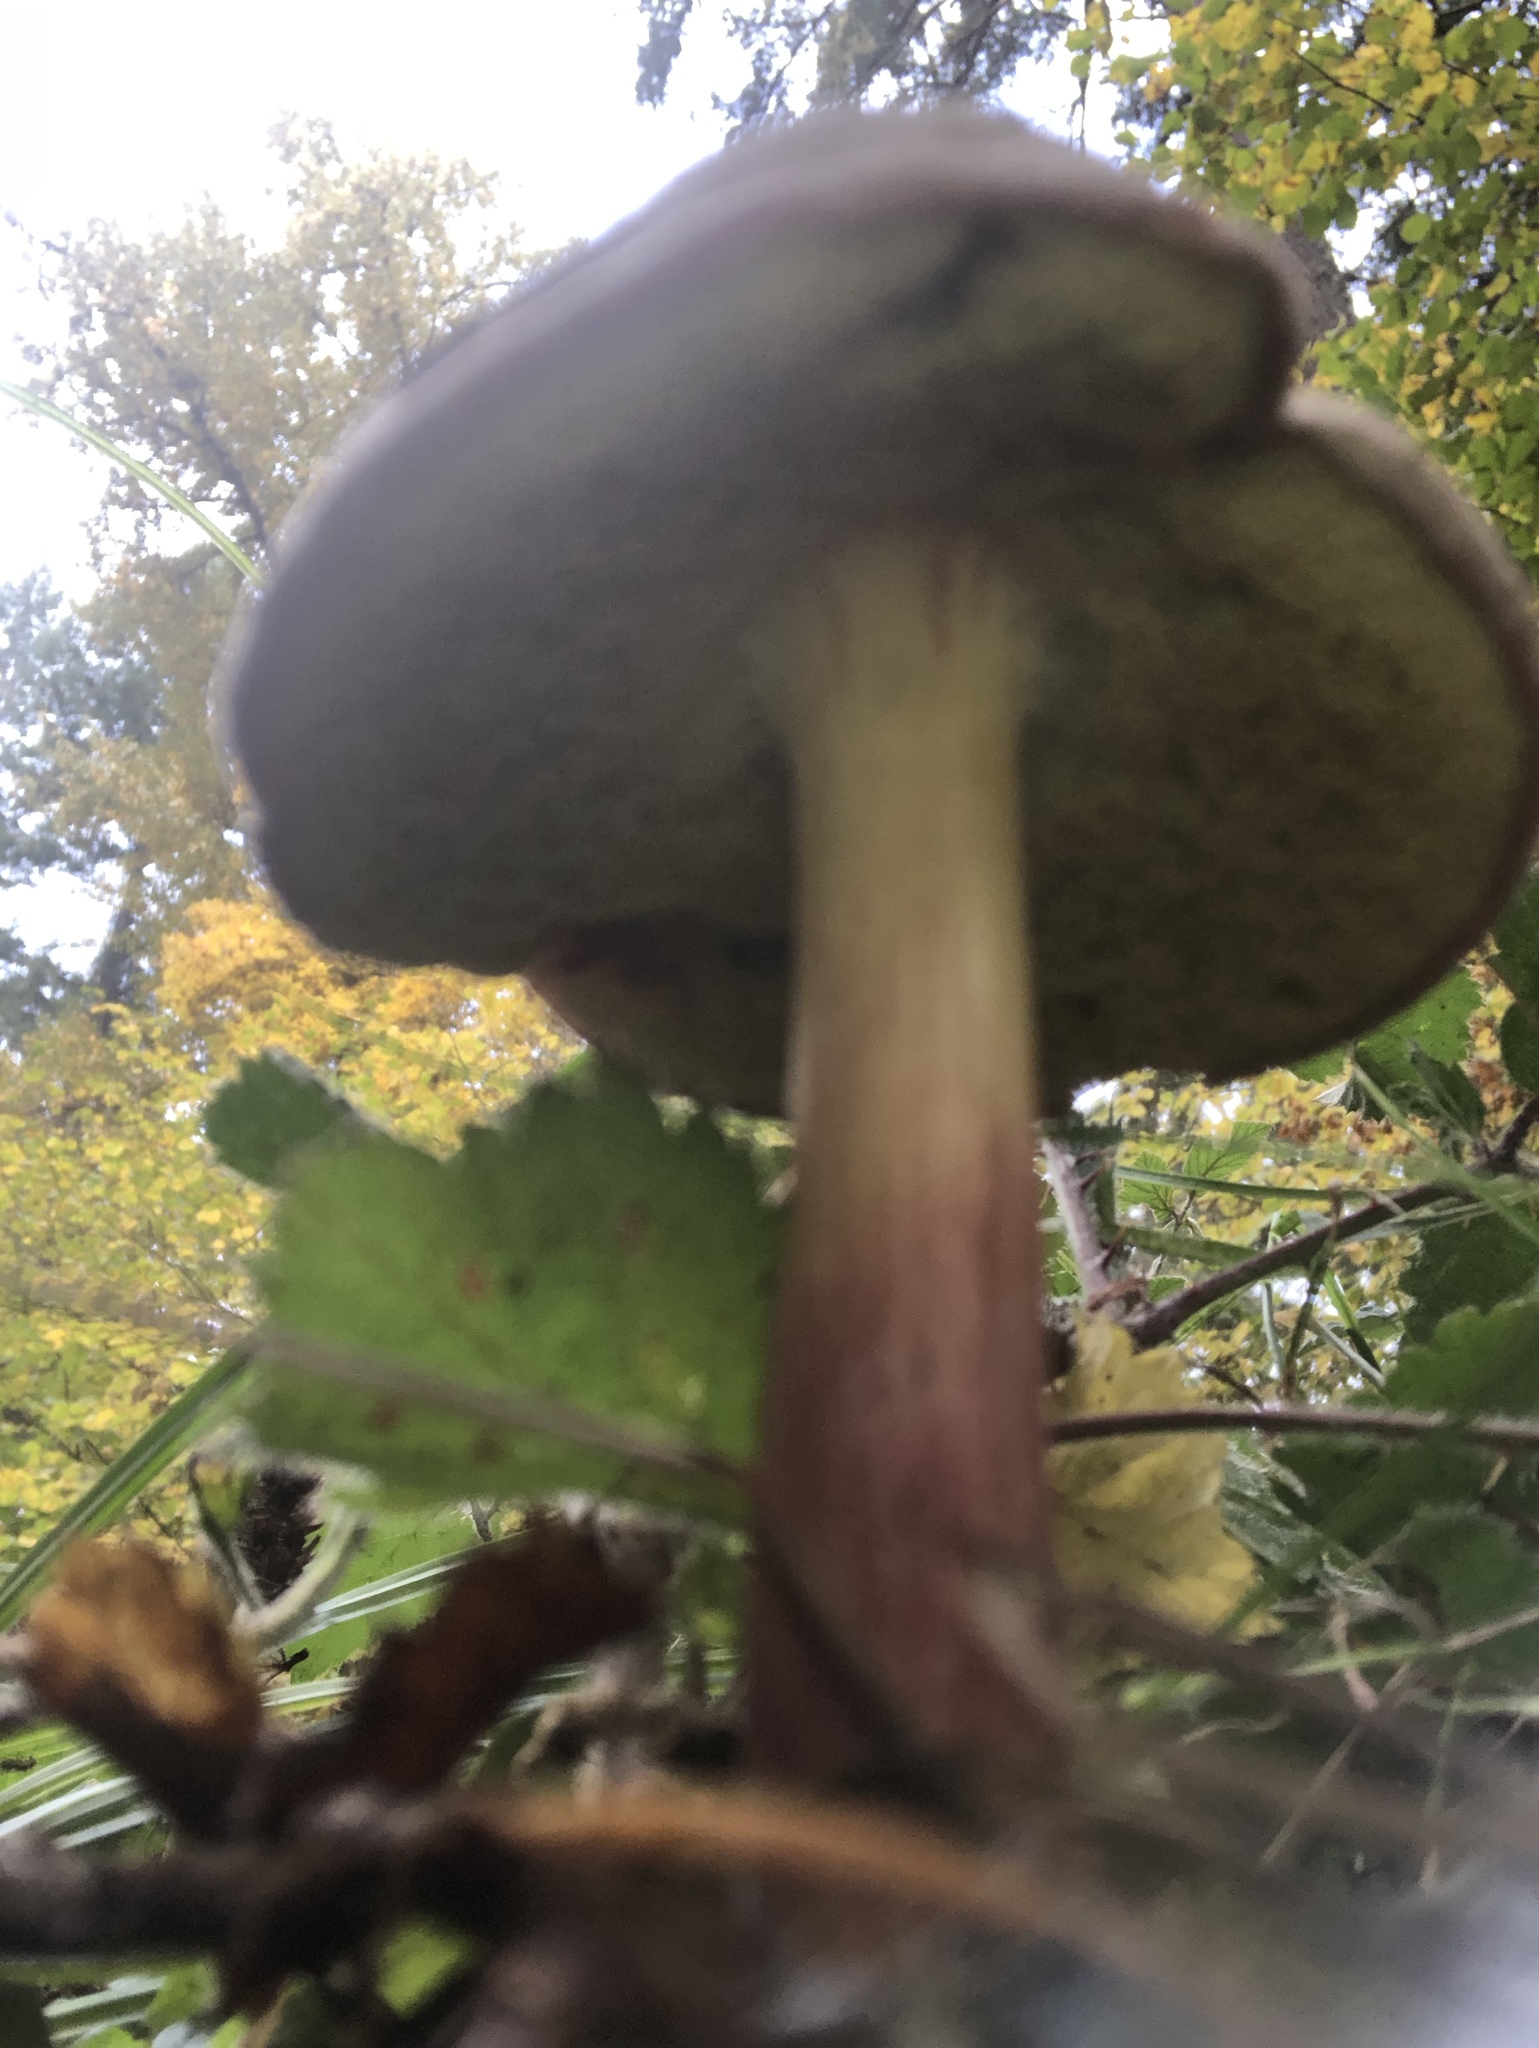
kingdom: Fungi
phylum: Basidiomycota
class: Agaricomycetes
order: Boletales
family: Boletaceae
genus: Xerocomellus
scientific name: Xerocomellus diffractus
